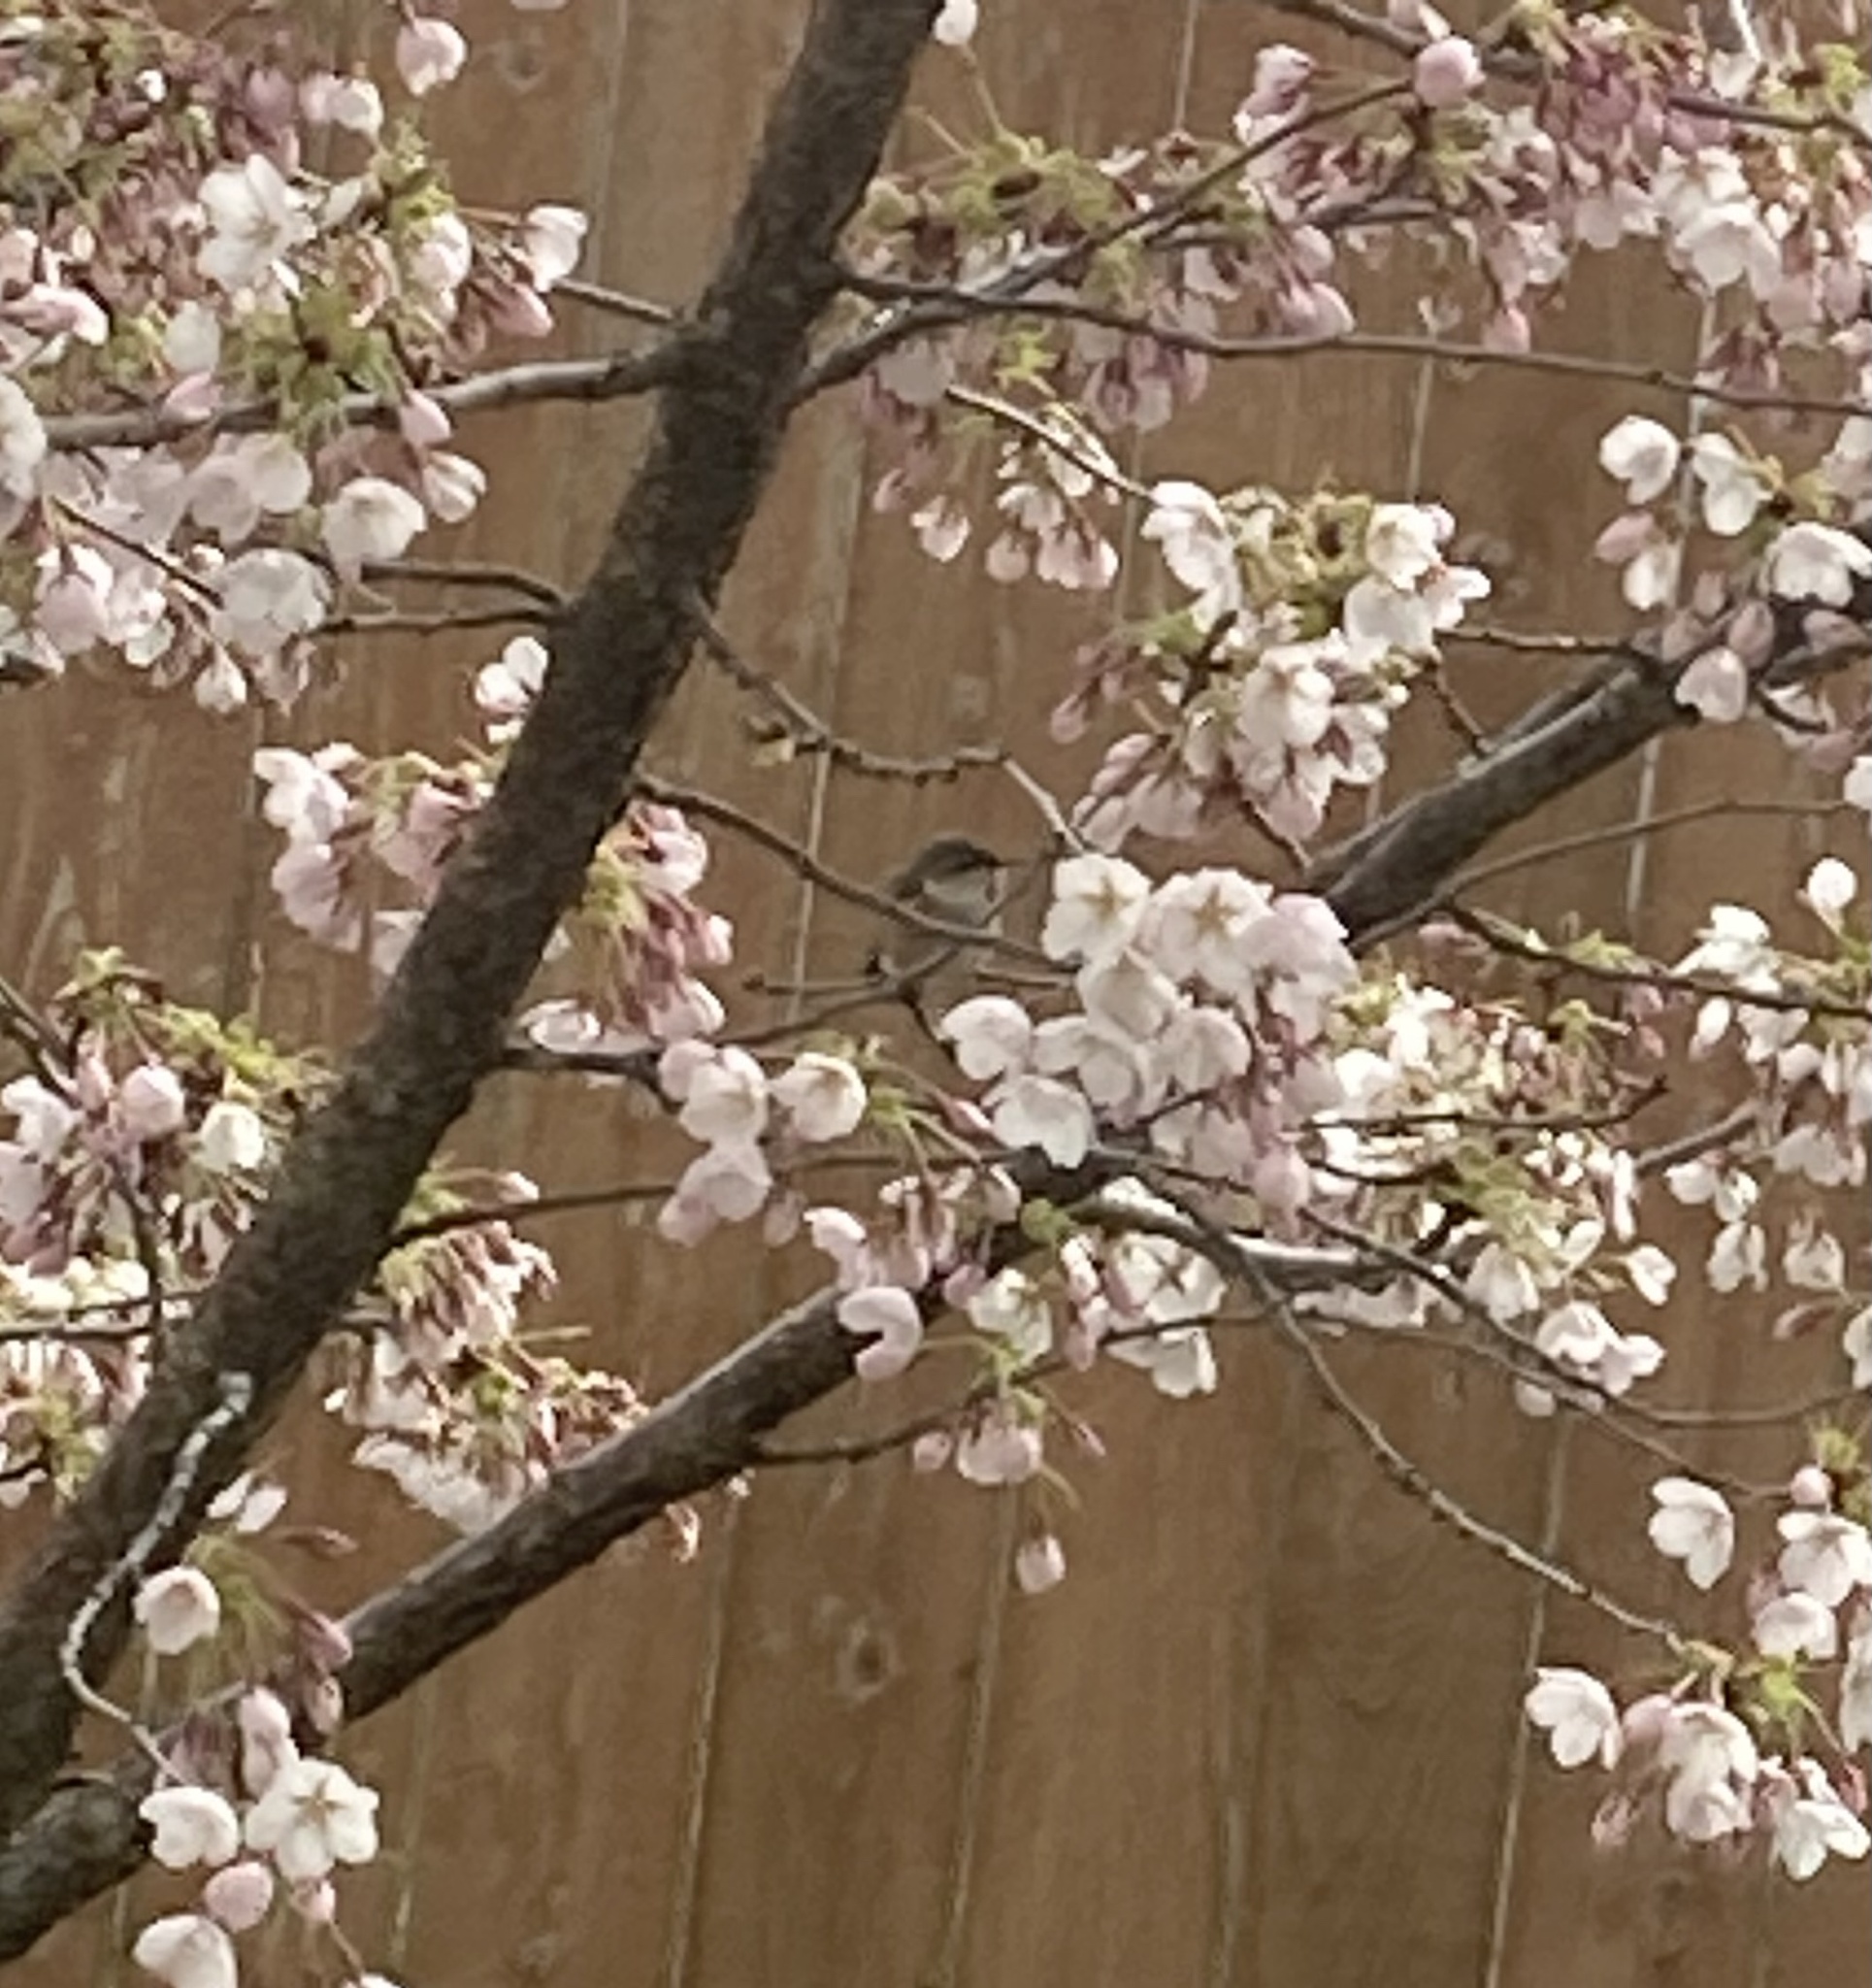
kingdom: Animalia
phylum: Chordata
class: Aves
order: Apodiformes
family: Trochilidae
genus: Selasphorus
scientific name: Selasphorus rufus
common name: Rufous hummingbird
